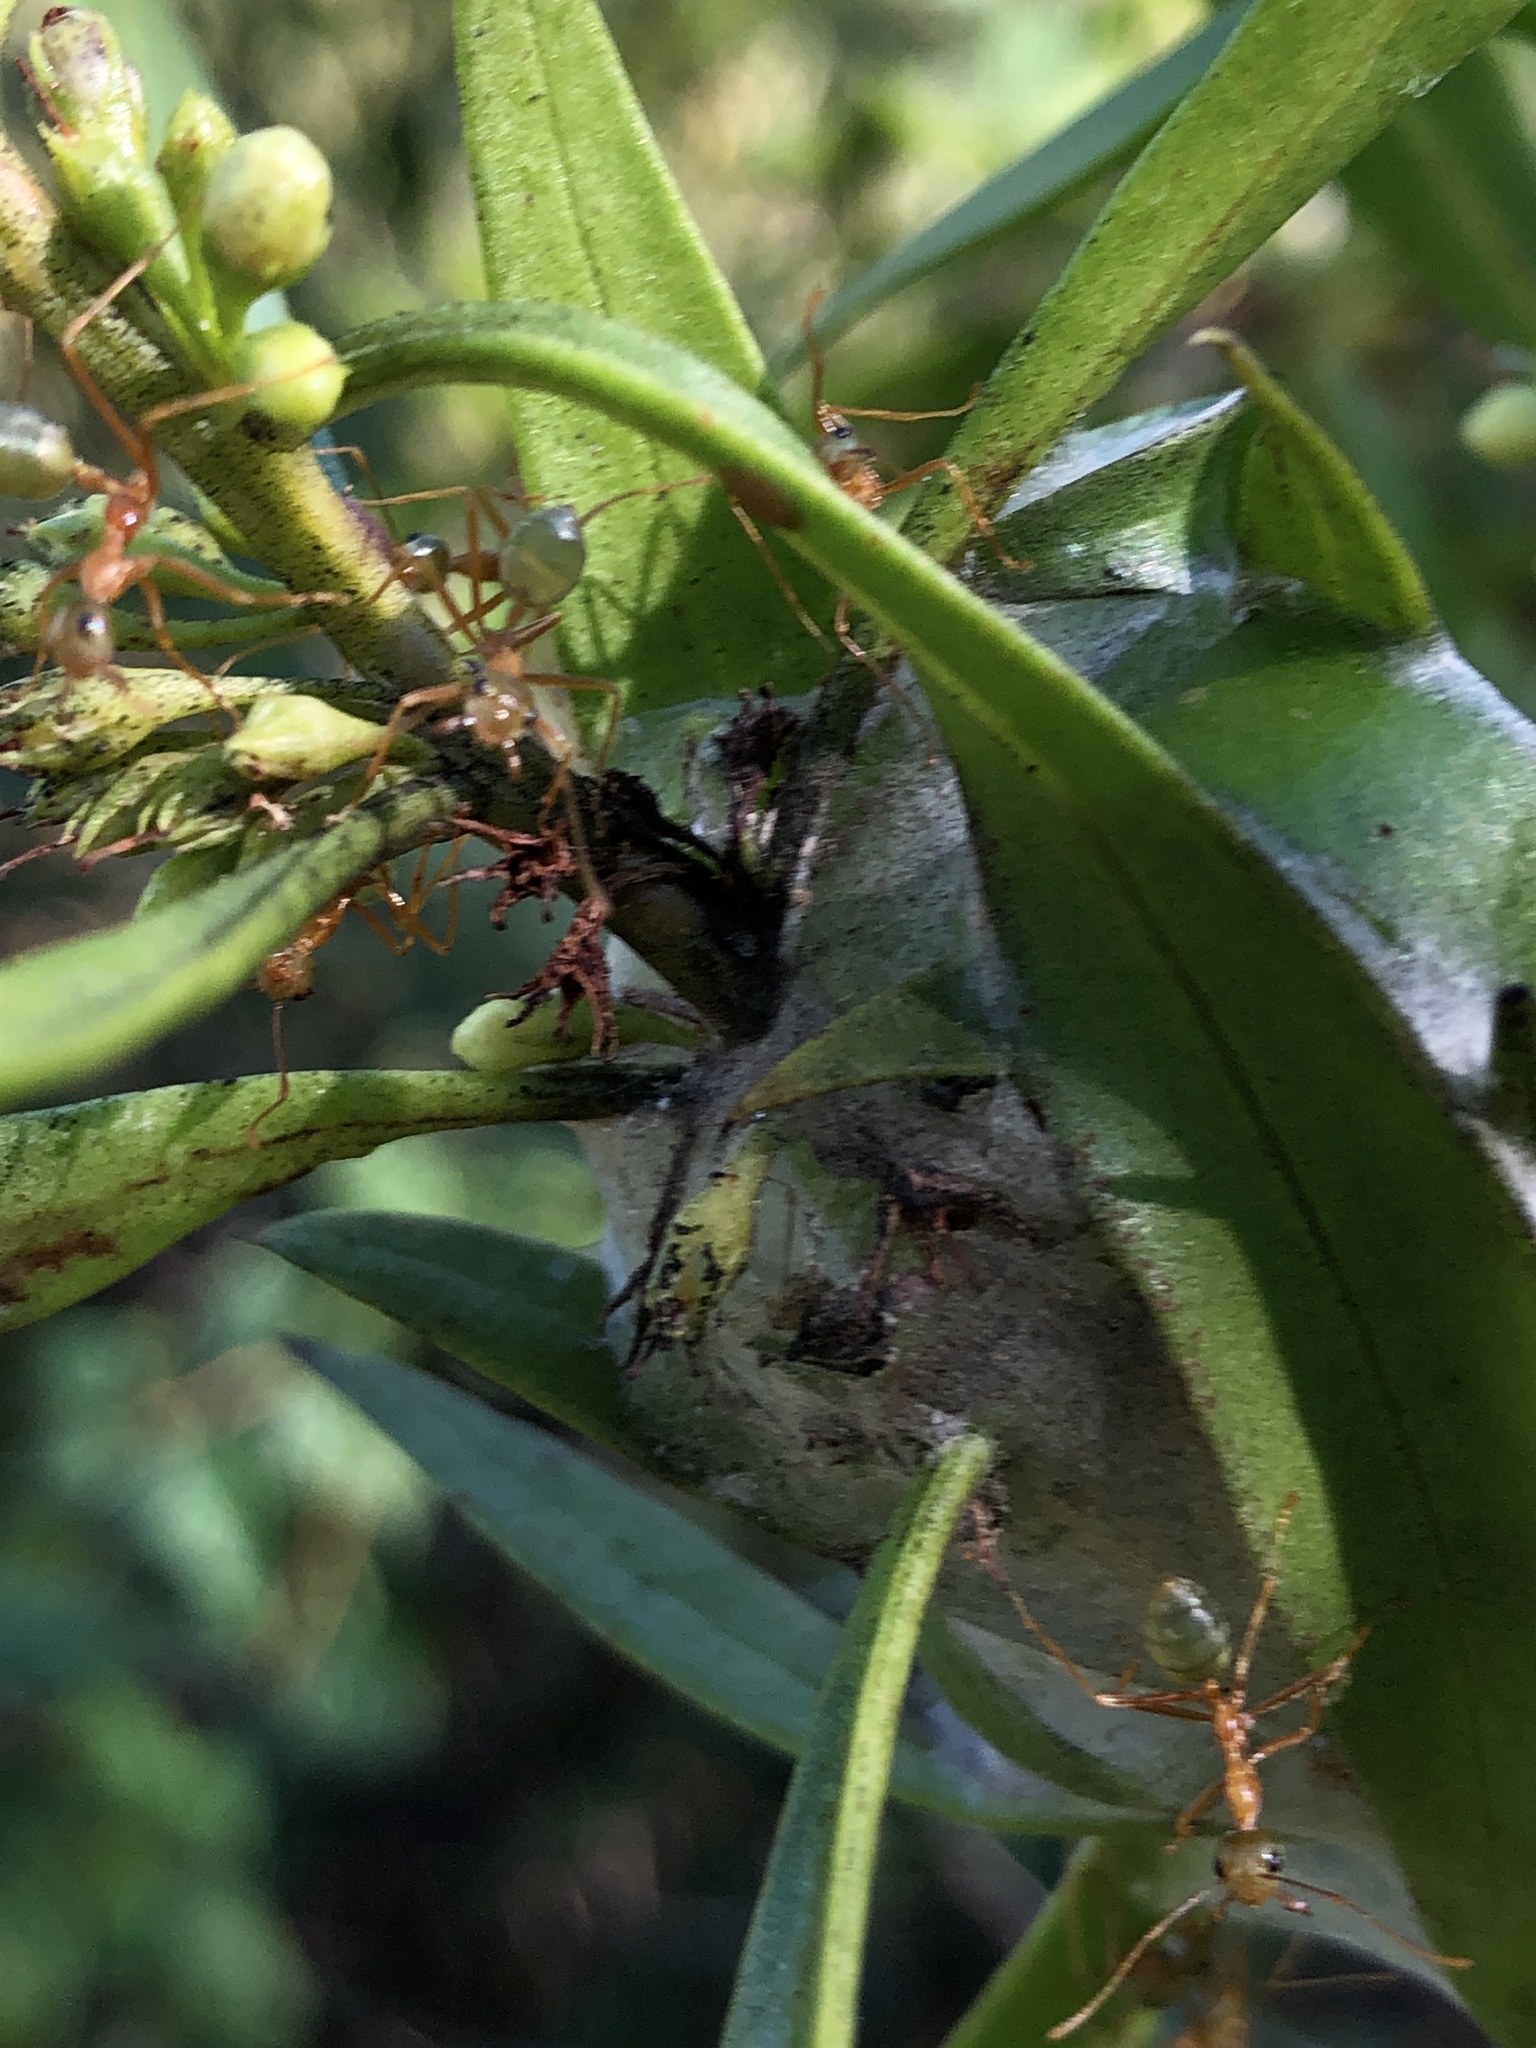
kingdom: Animalia
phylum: Arthropoda
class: Insecta
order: Hymenoptera
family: Formicidae
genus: Oecophylla
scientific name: Oecophylla smaragdina
